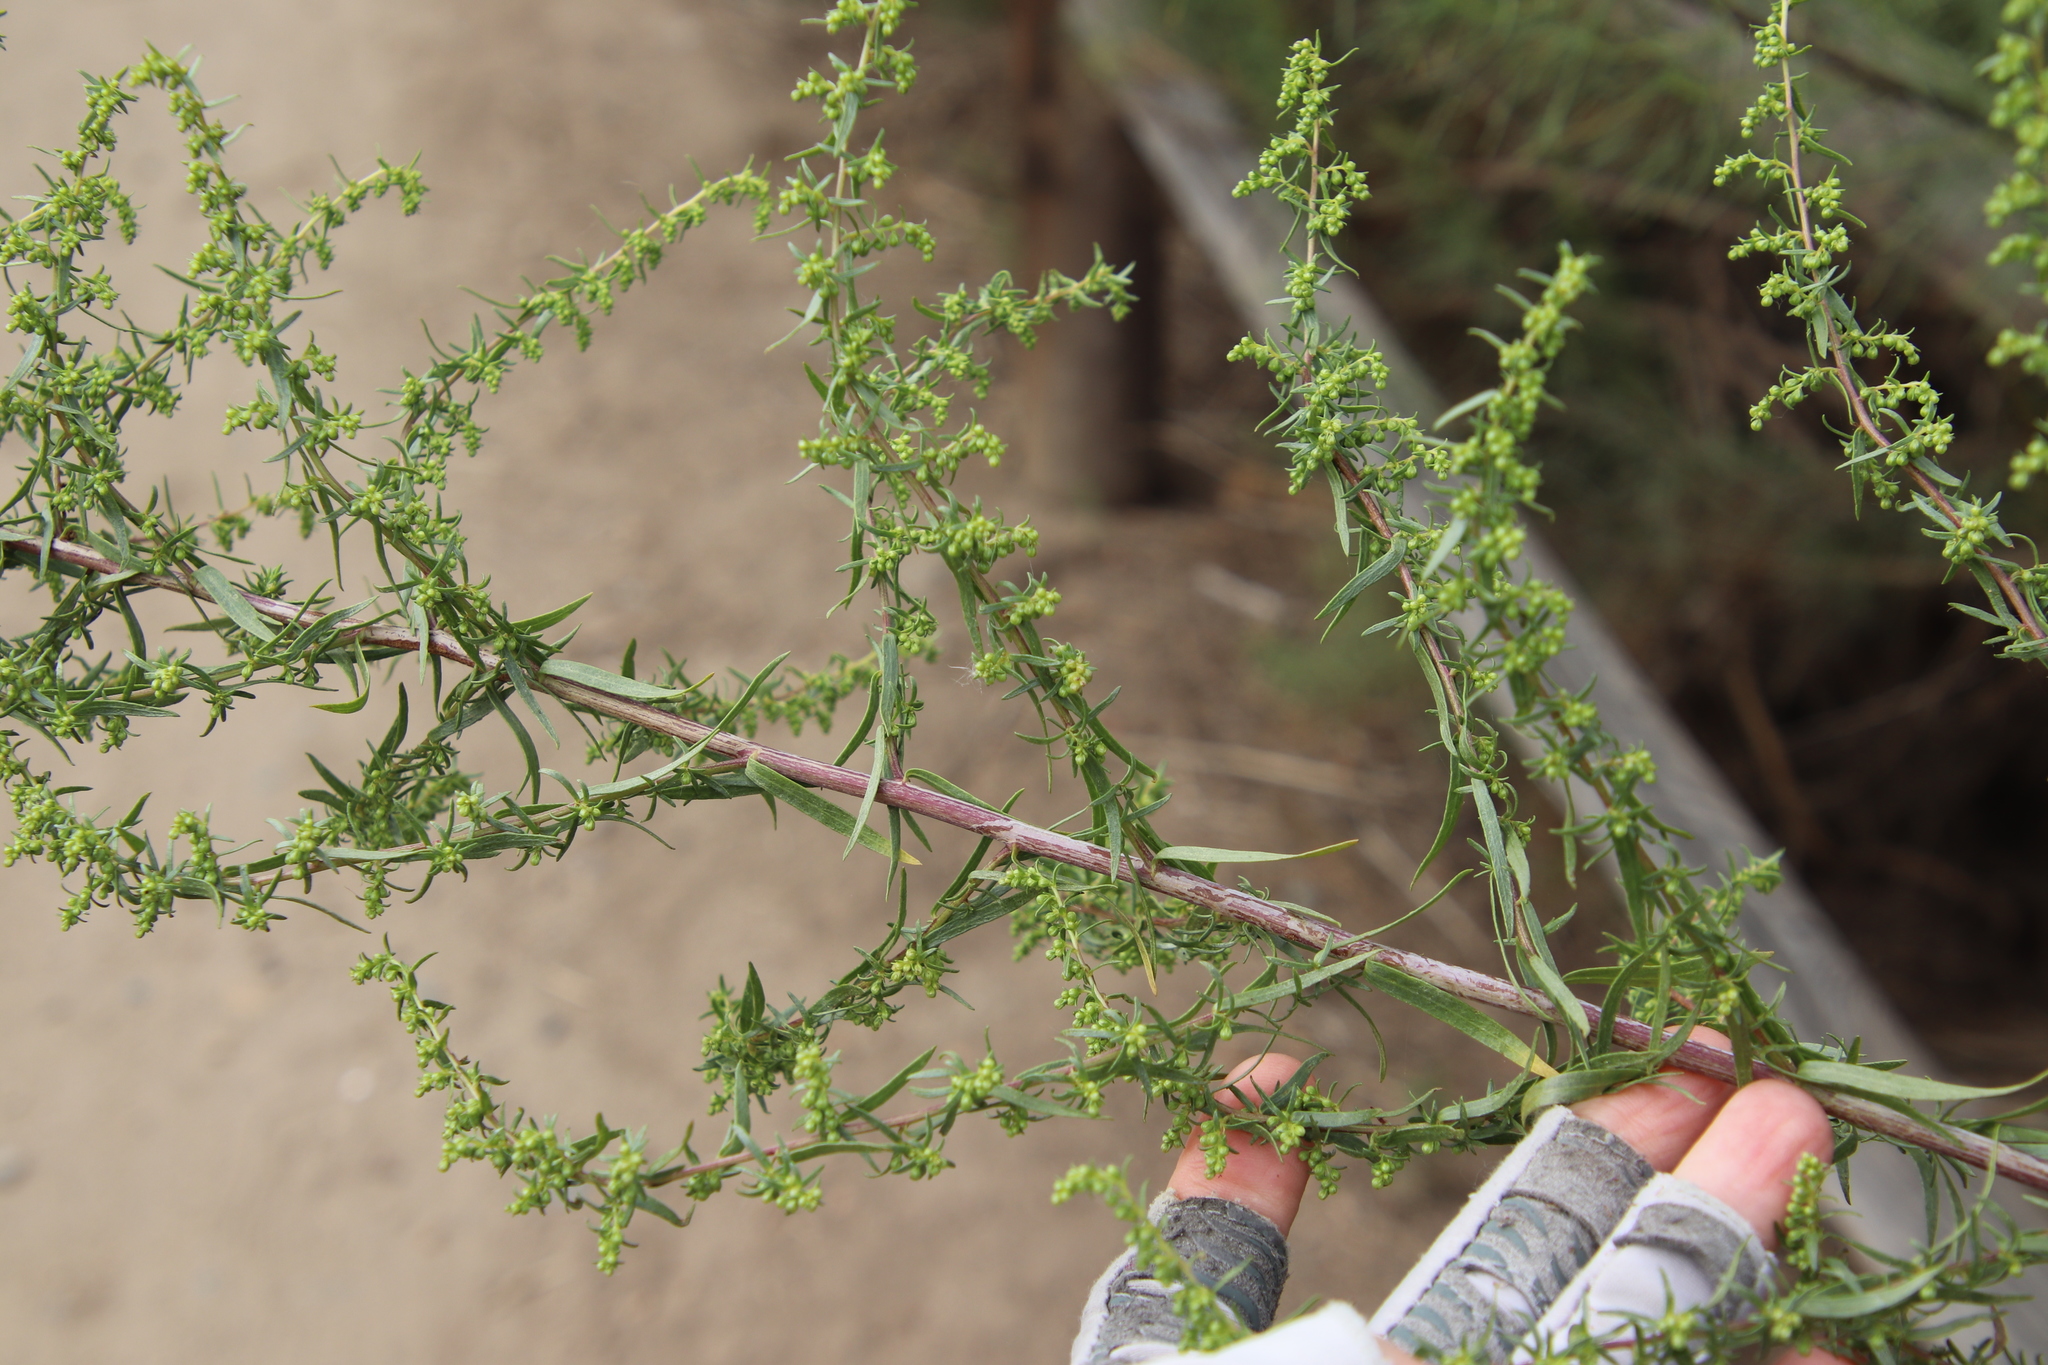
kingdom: Plantae
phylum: Tracheophyta
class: Magnoliopsida
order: Asterales
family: Asteraceae
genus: Artemisia
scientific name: Artemisia dracunculus
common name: Tarragon
